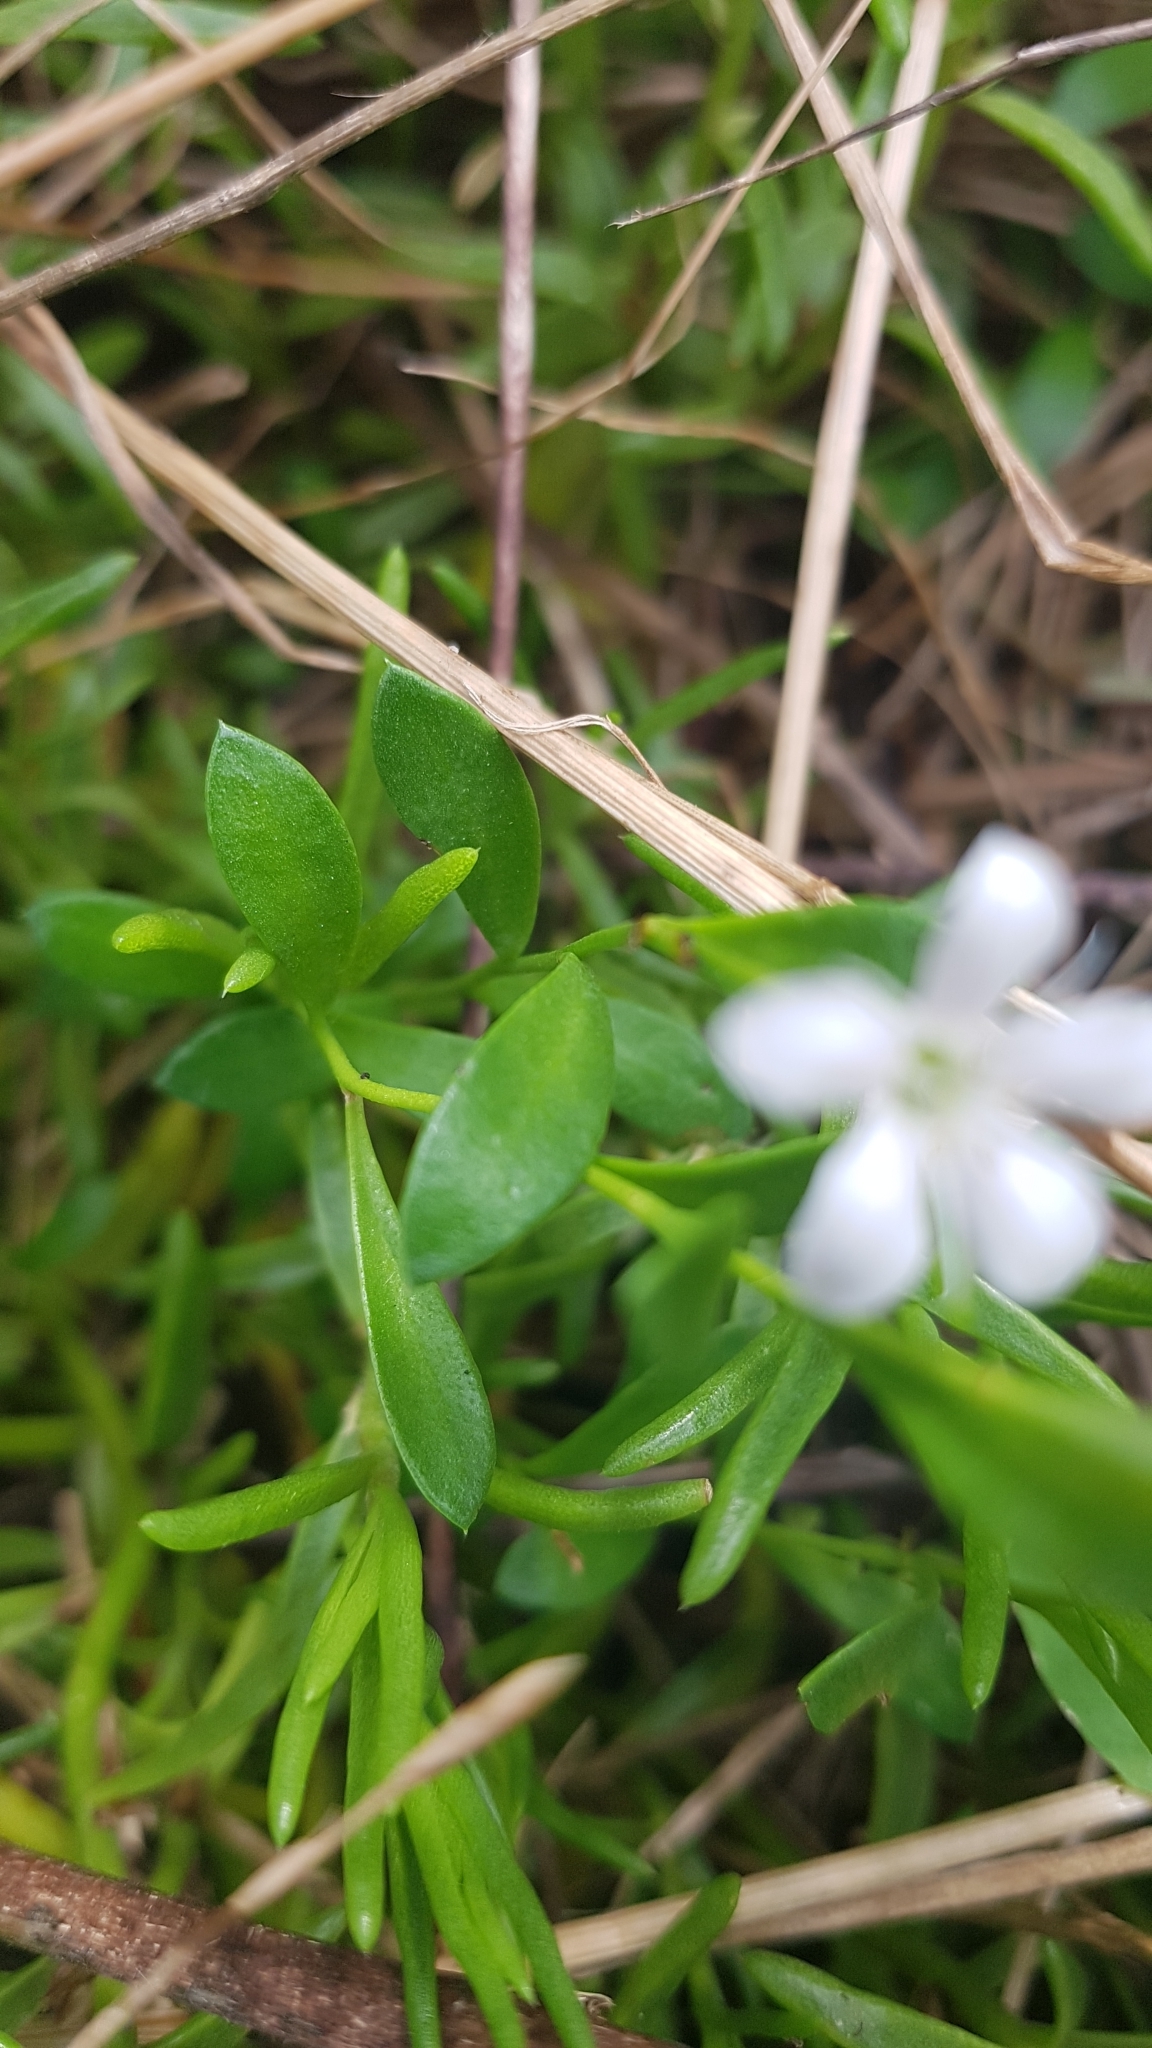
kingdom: Plantae
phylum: Tracheophyta
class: Magnoliopsida
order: Ericales
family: Primulaceae
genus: Samolus
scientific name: Samolus repens
